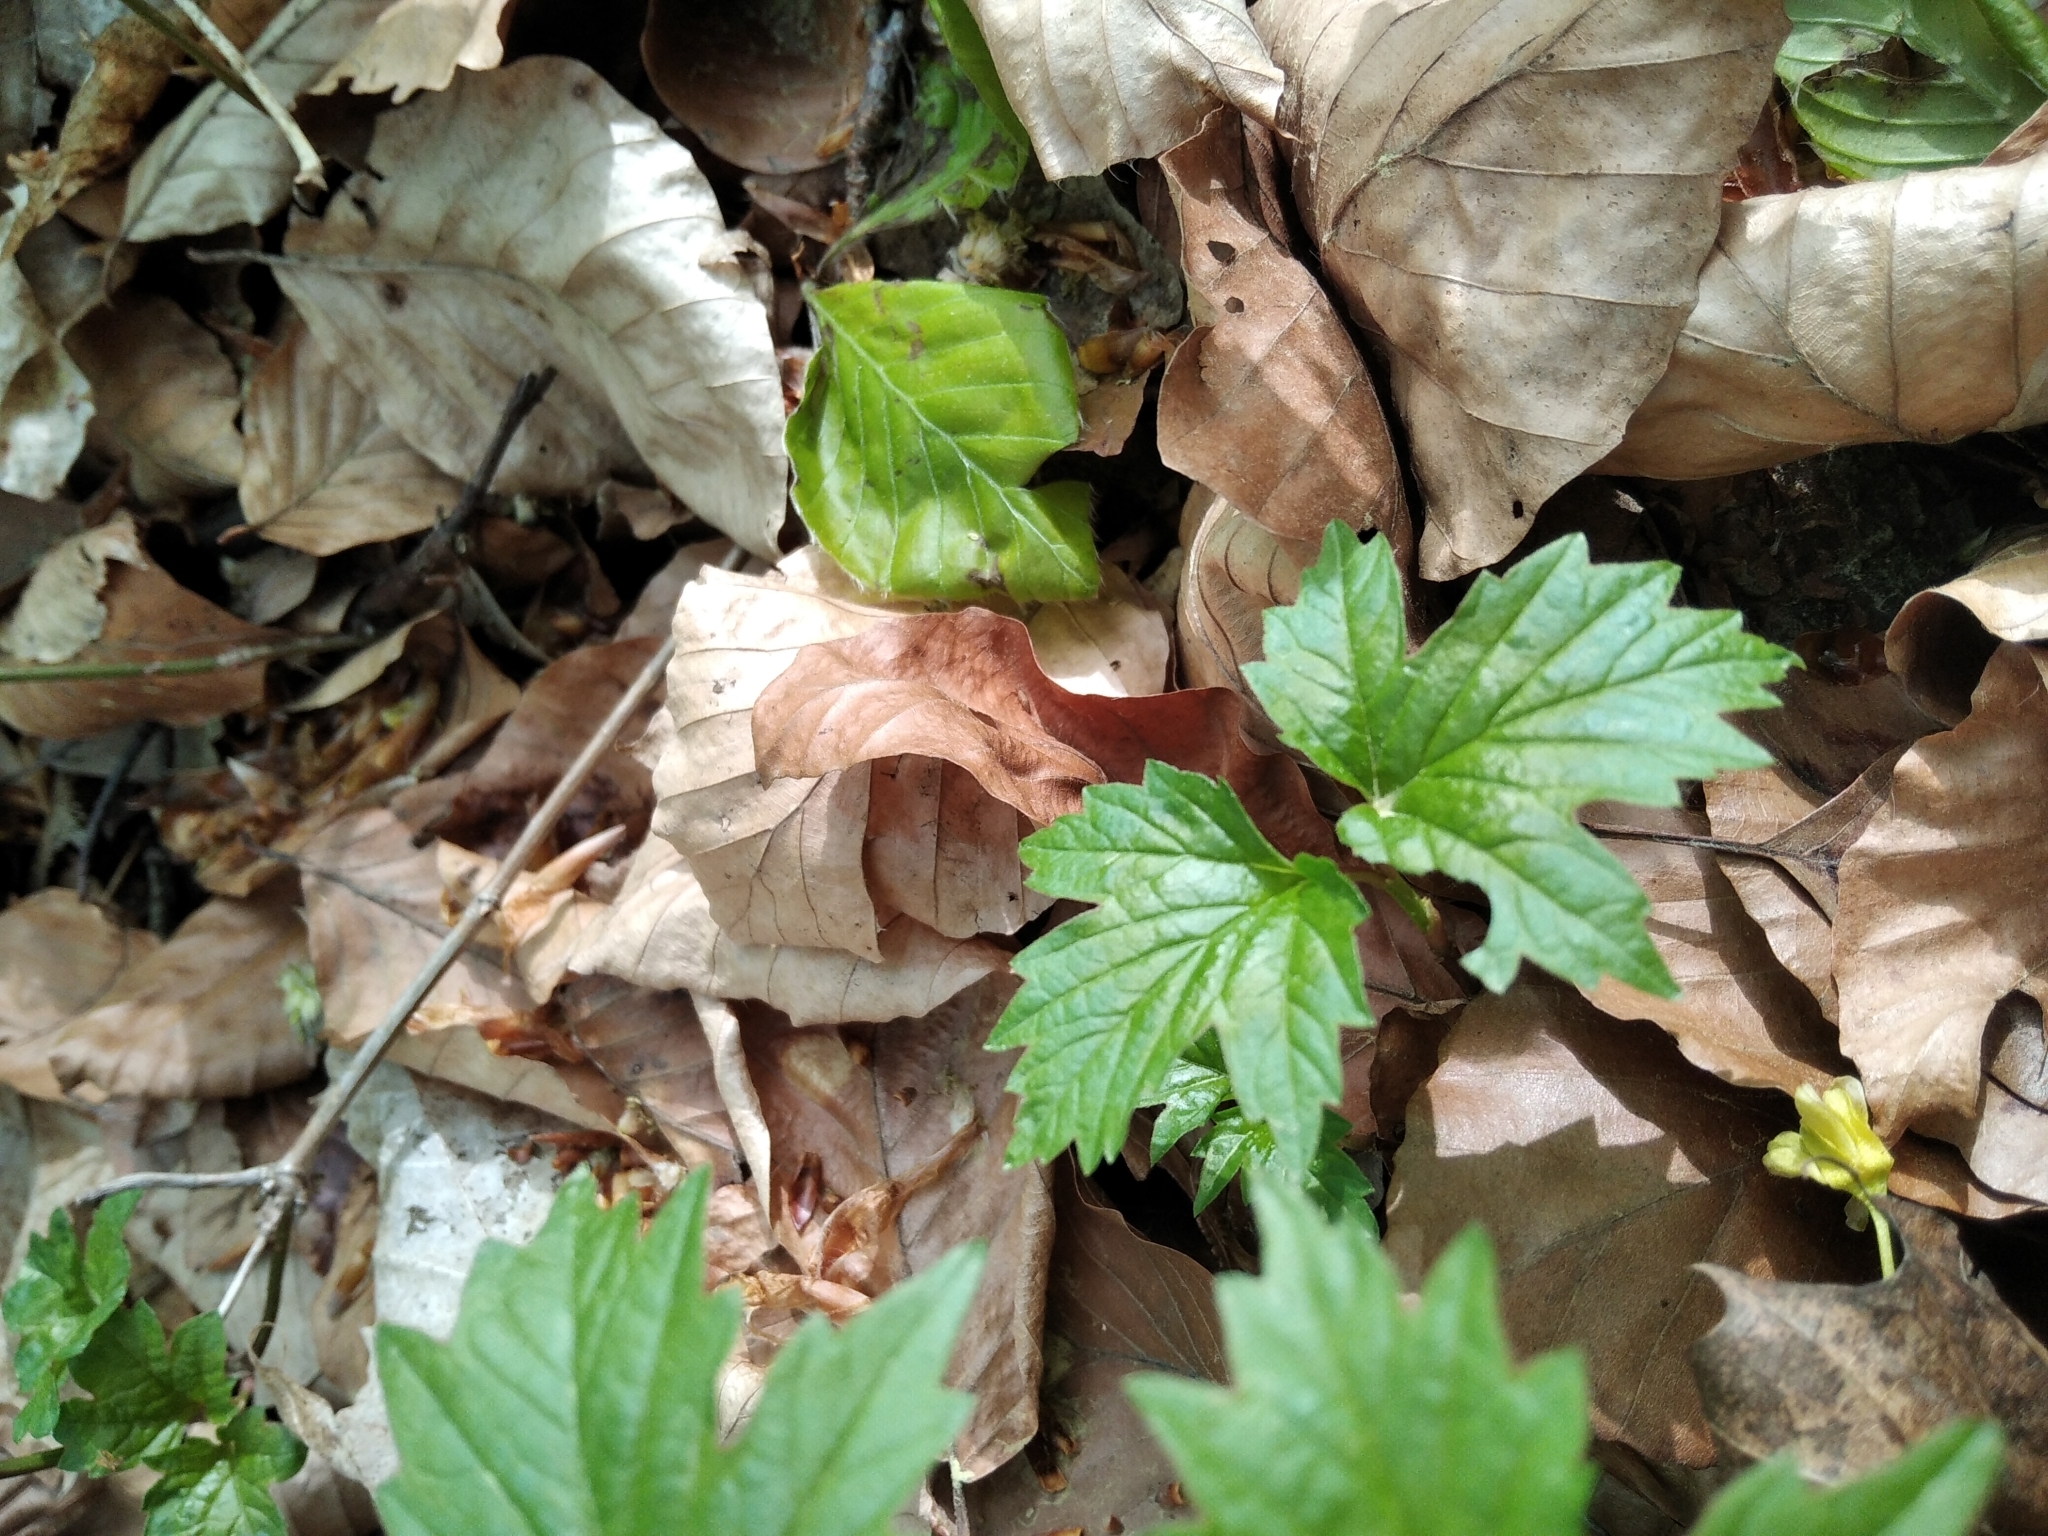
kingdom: Plantae
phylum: Tracheophyta
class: Magnoliopsida
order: Dipsacales
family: Viburnaceae
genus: Viburnum
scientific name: Viburnum opulus
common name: Guelder-rose
